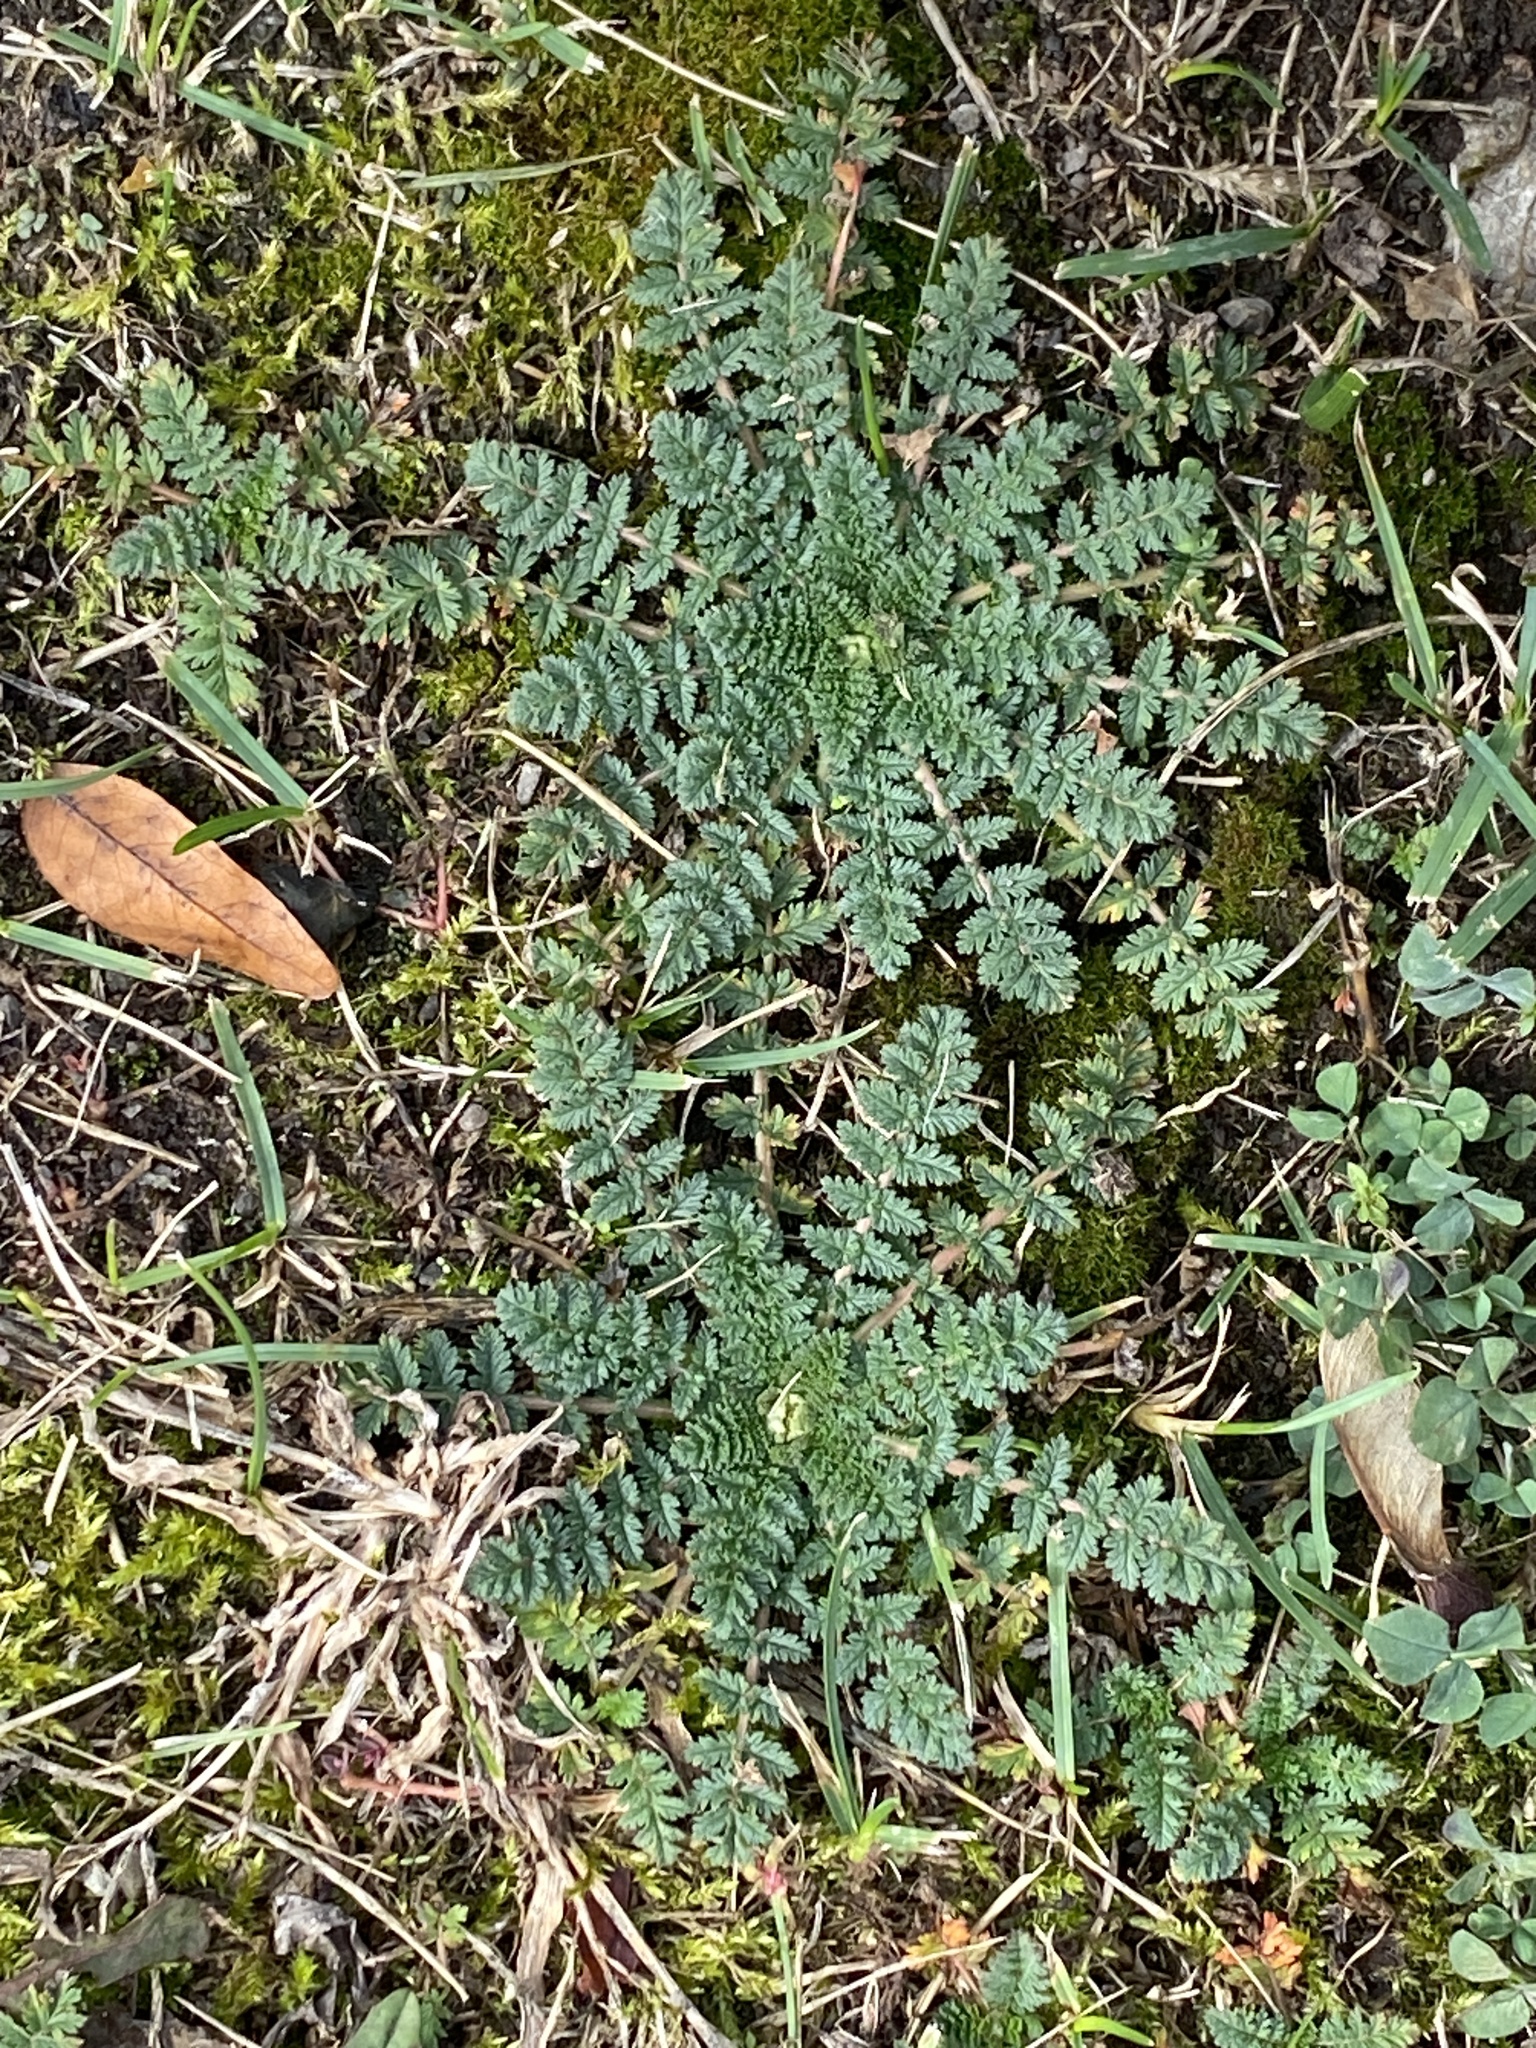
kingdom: Plantae
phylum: Tracheophyta
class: Magnoliopsida
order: Geraniales
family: Geraniaceae
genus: Erodium
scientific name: Erodium cicutarium
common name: Common stork's-bill
